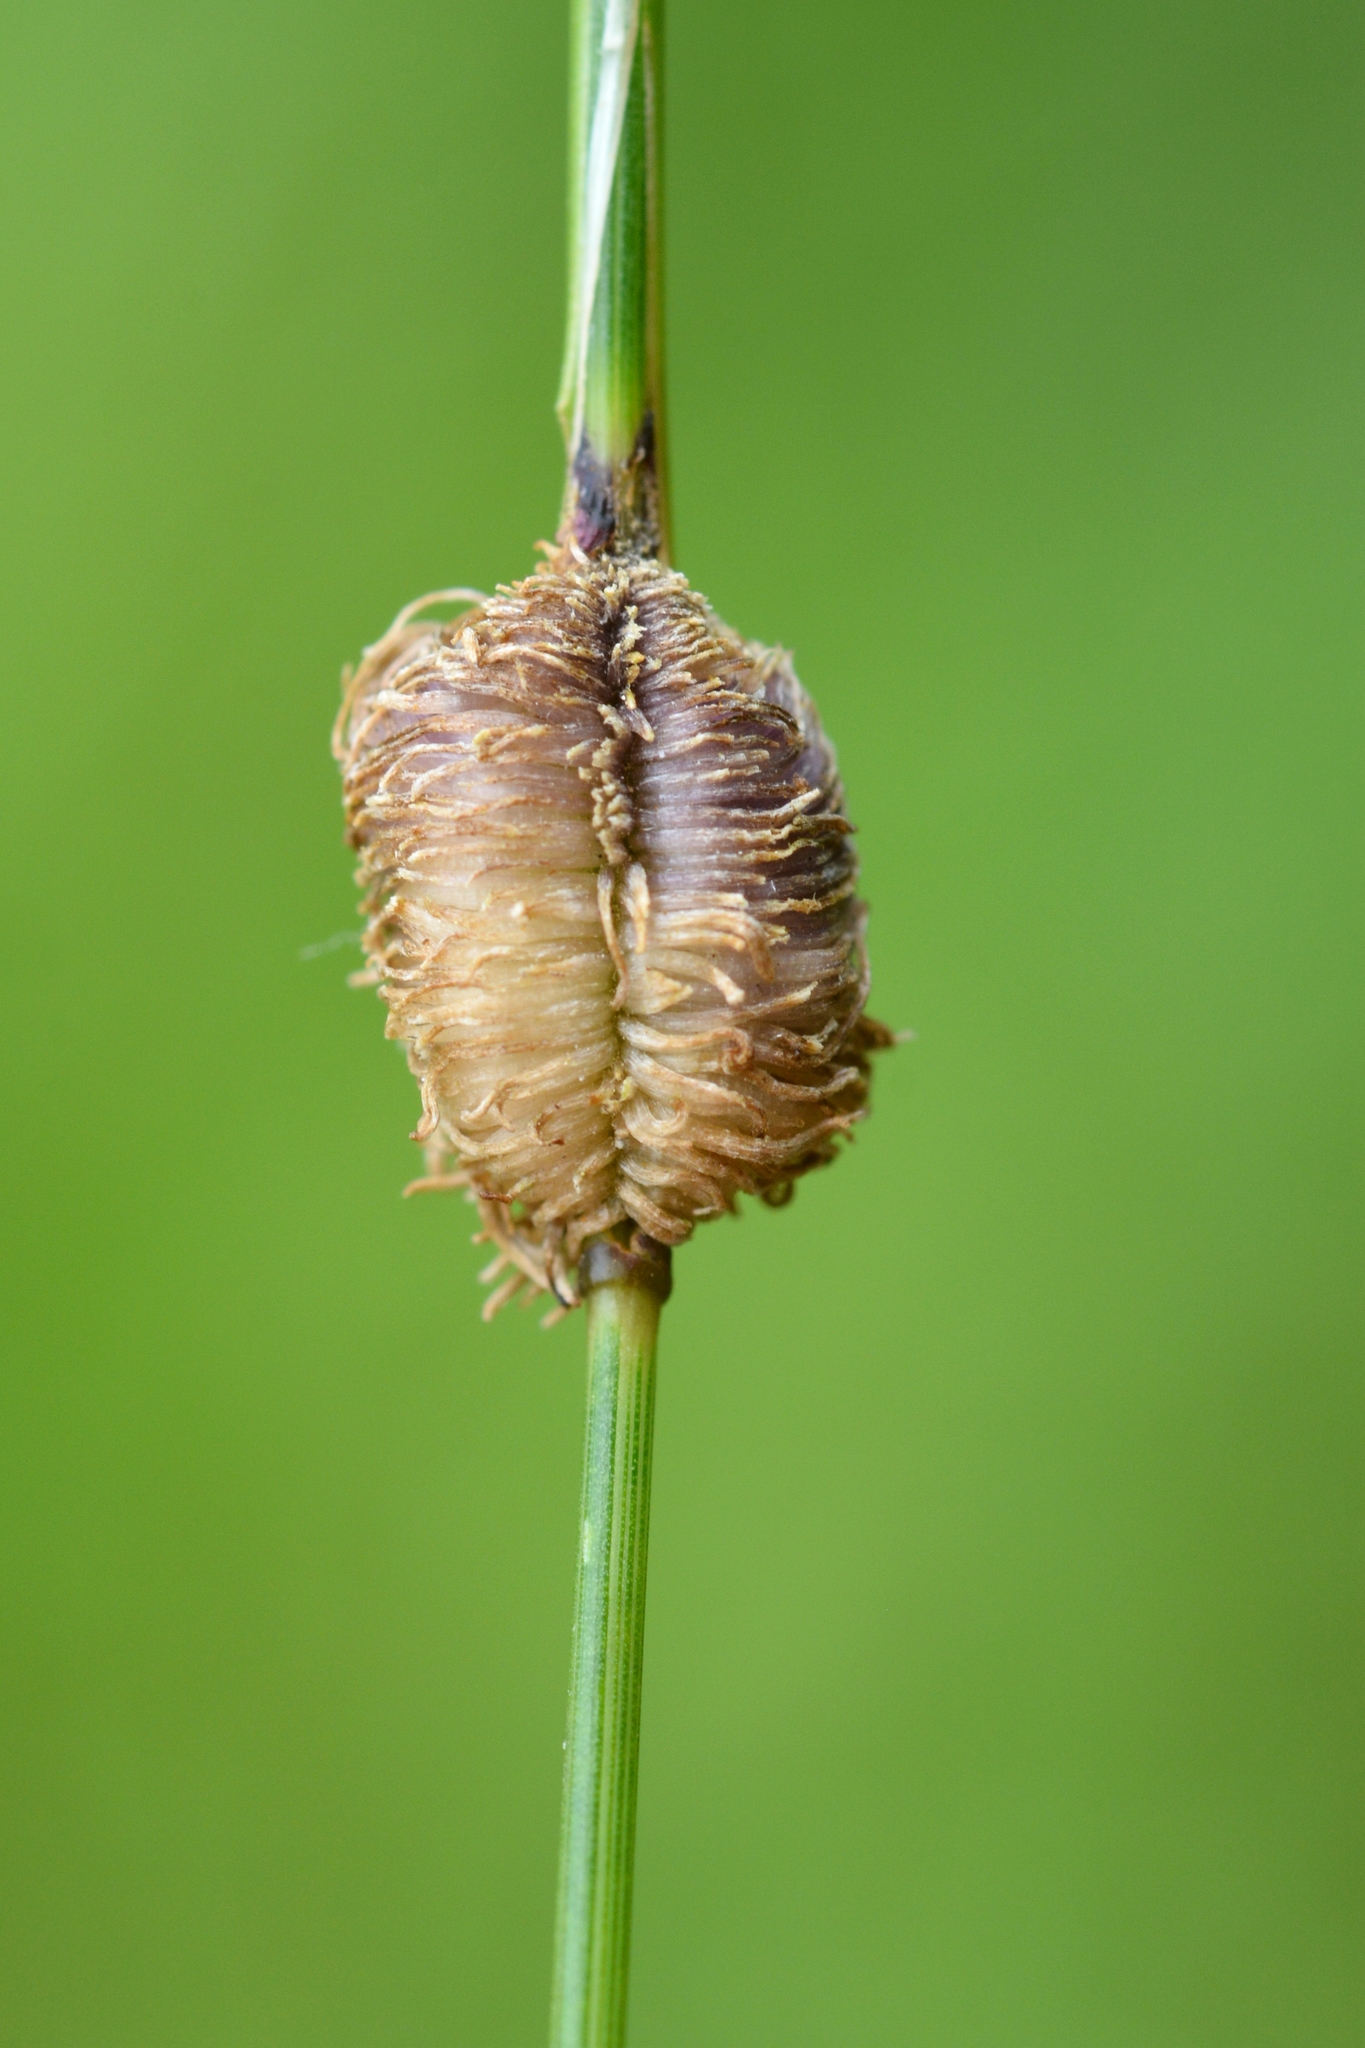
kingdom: Animalia
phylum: Arthropoda
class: Insecta
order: Diptera
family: Cecidomyiidae
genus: Mayetiola
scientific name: Mayetiola graminis
